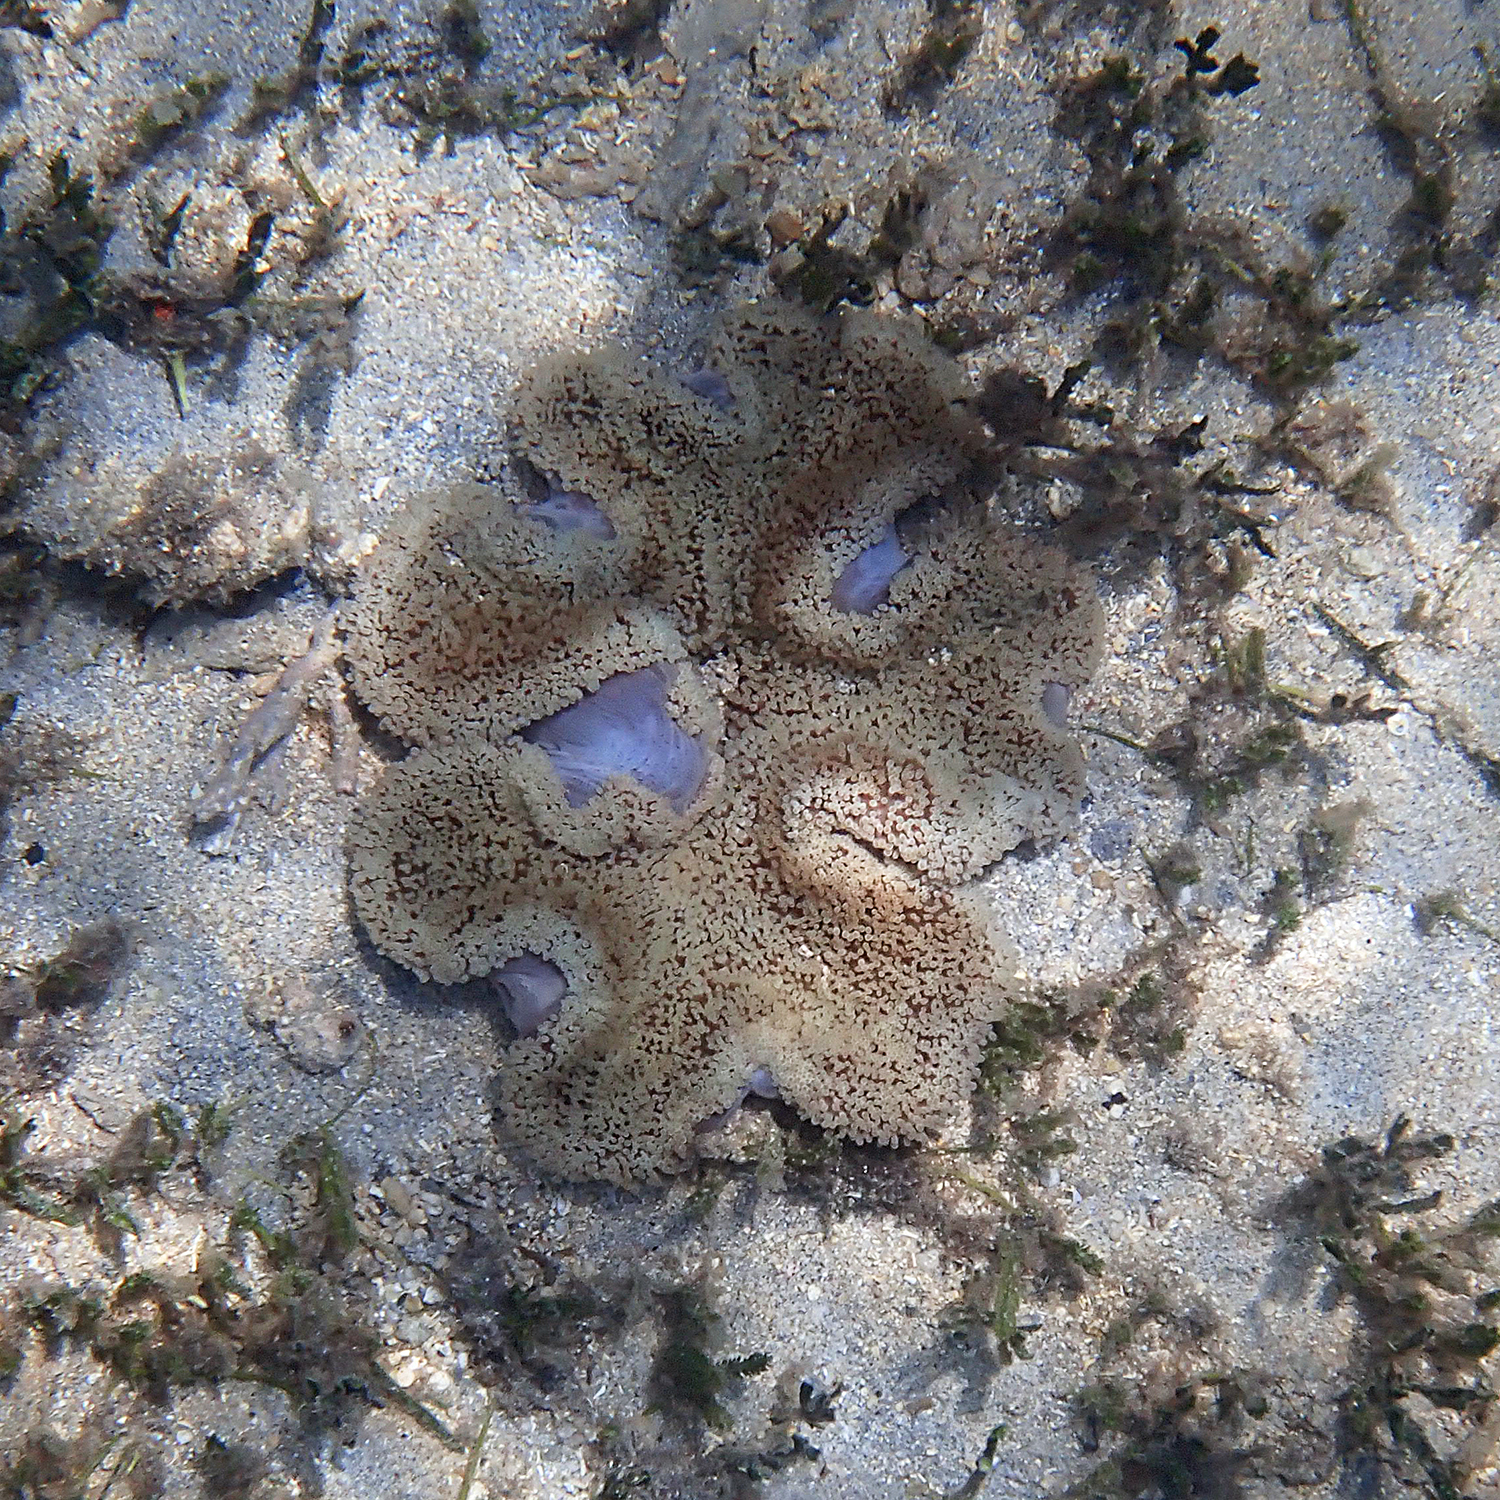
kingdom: Animalia
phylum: Cnidaria
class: Anthozoa
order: Actiniaria
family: Stichodactylidae
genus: Stichodactyla
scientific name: Stichodactyla haddoni
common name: Haddon's sea anemone
